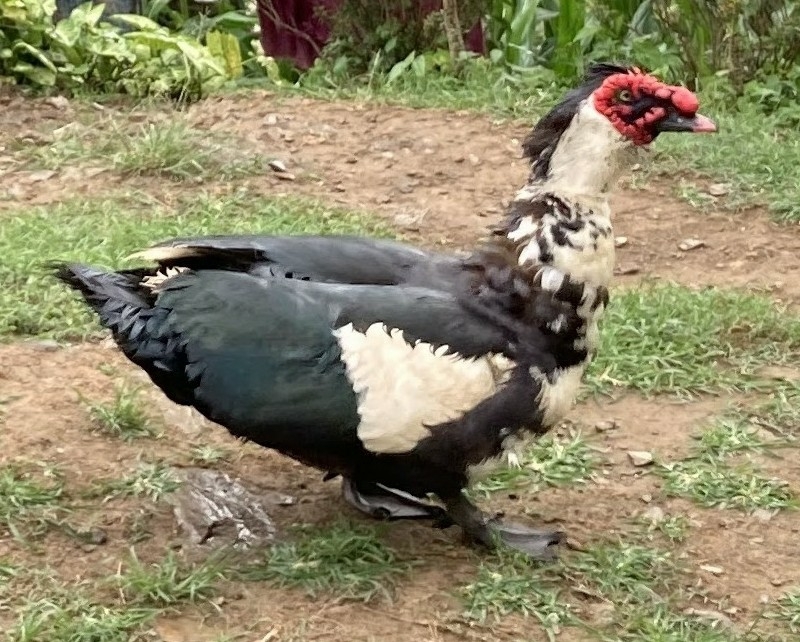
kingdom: Animalia
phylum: Chordata
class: Aves
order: Anseriformes
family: Anatidae
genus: Cairina
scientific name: Cairina moschata
